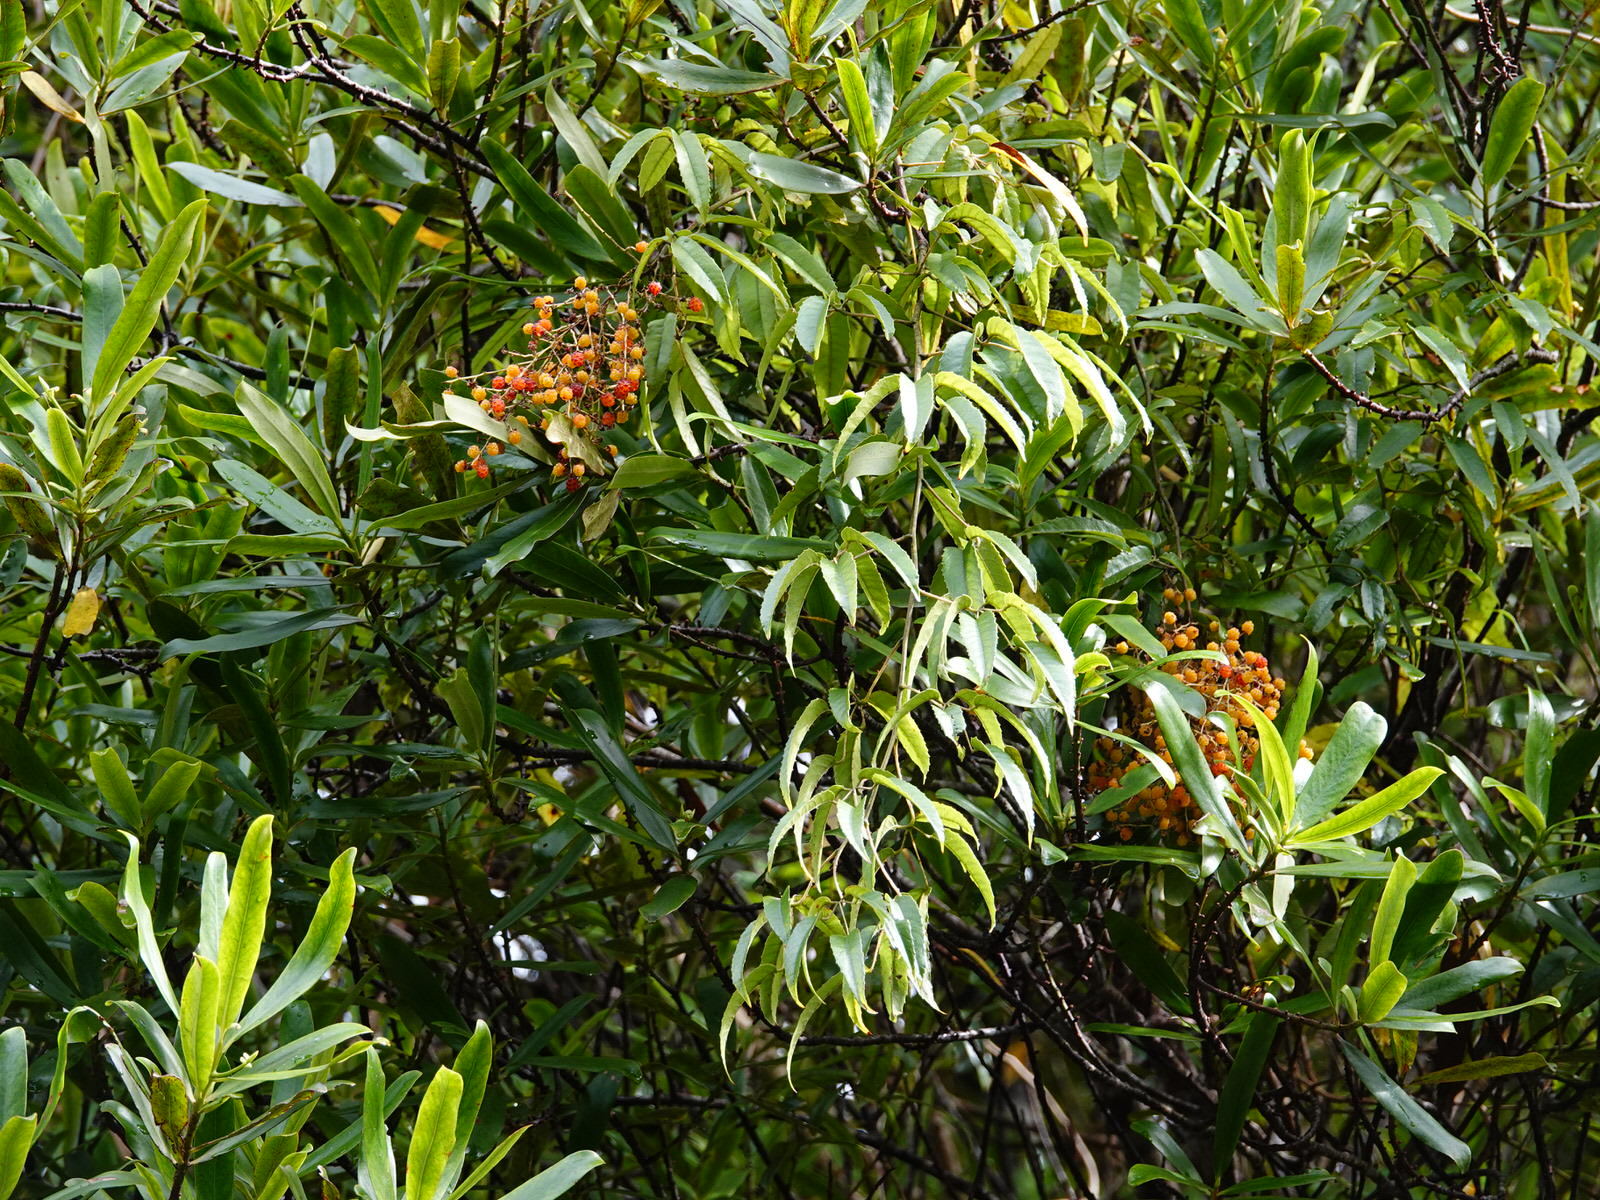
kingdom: Plantae
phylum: Tracheophyta
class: Magnoliopsida
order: Rosales
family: Rosaceae
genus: Rubus
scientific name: Rubus cissoides
